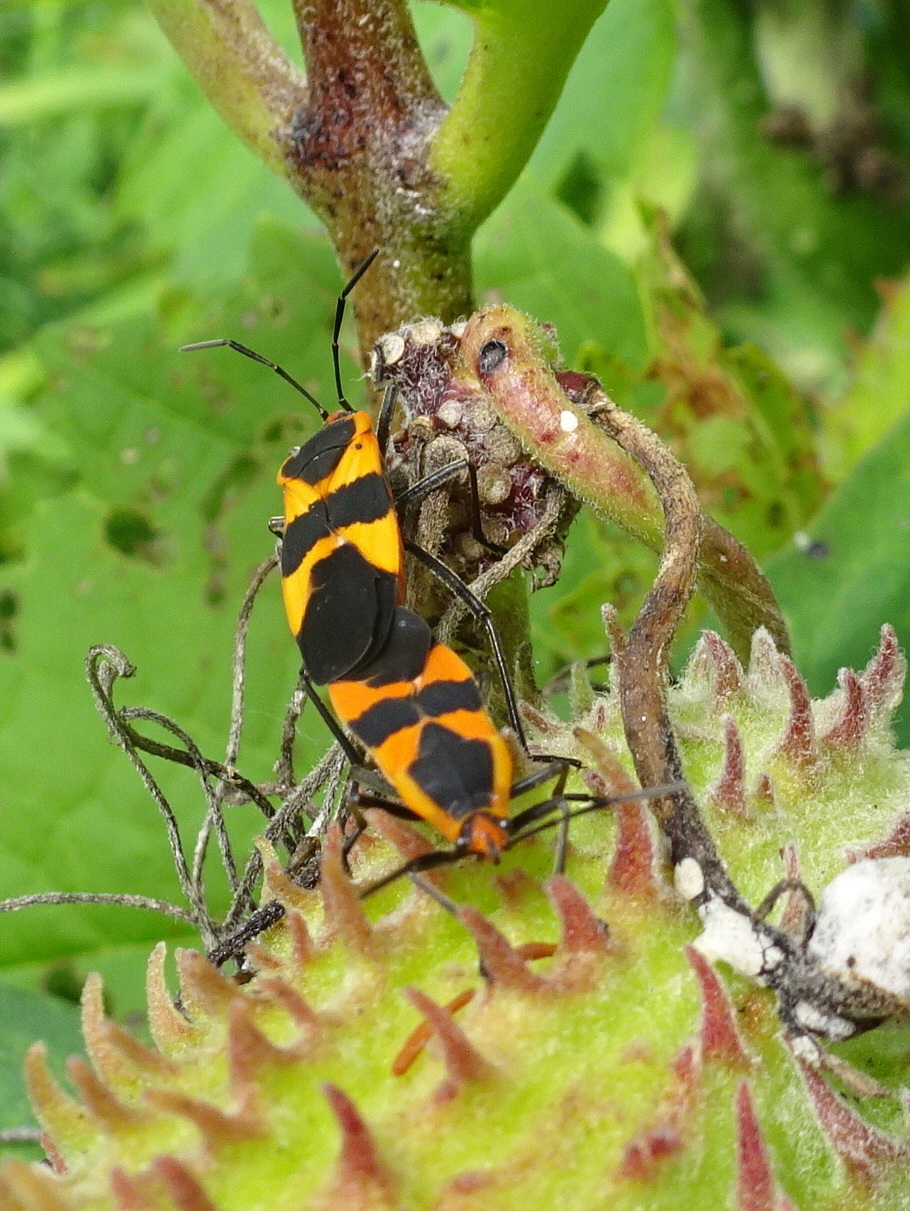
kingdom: Animalia
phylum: Arthropoda
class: Insecta
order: Hemiptera
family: Lygaeidae
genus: Oncopeltus
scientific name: Oncopeltus fasciatus
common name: Large milkweed bug
